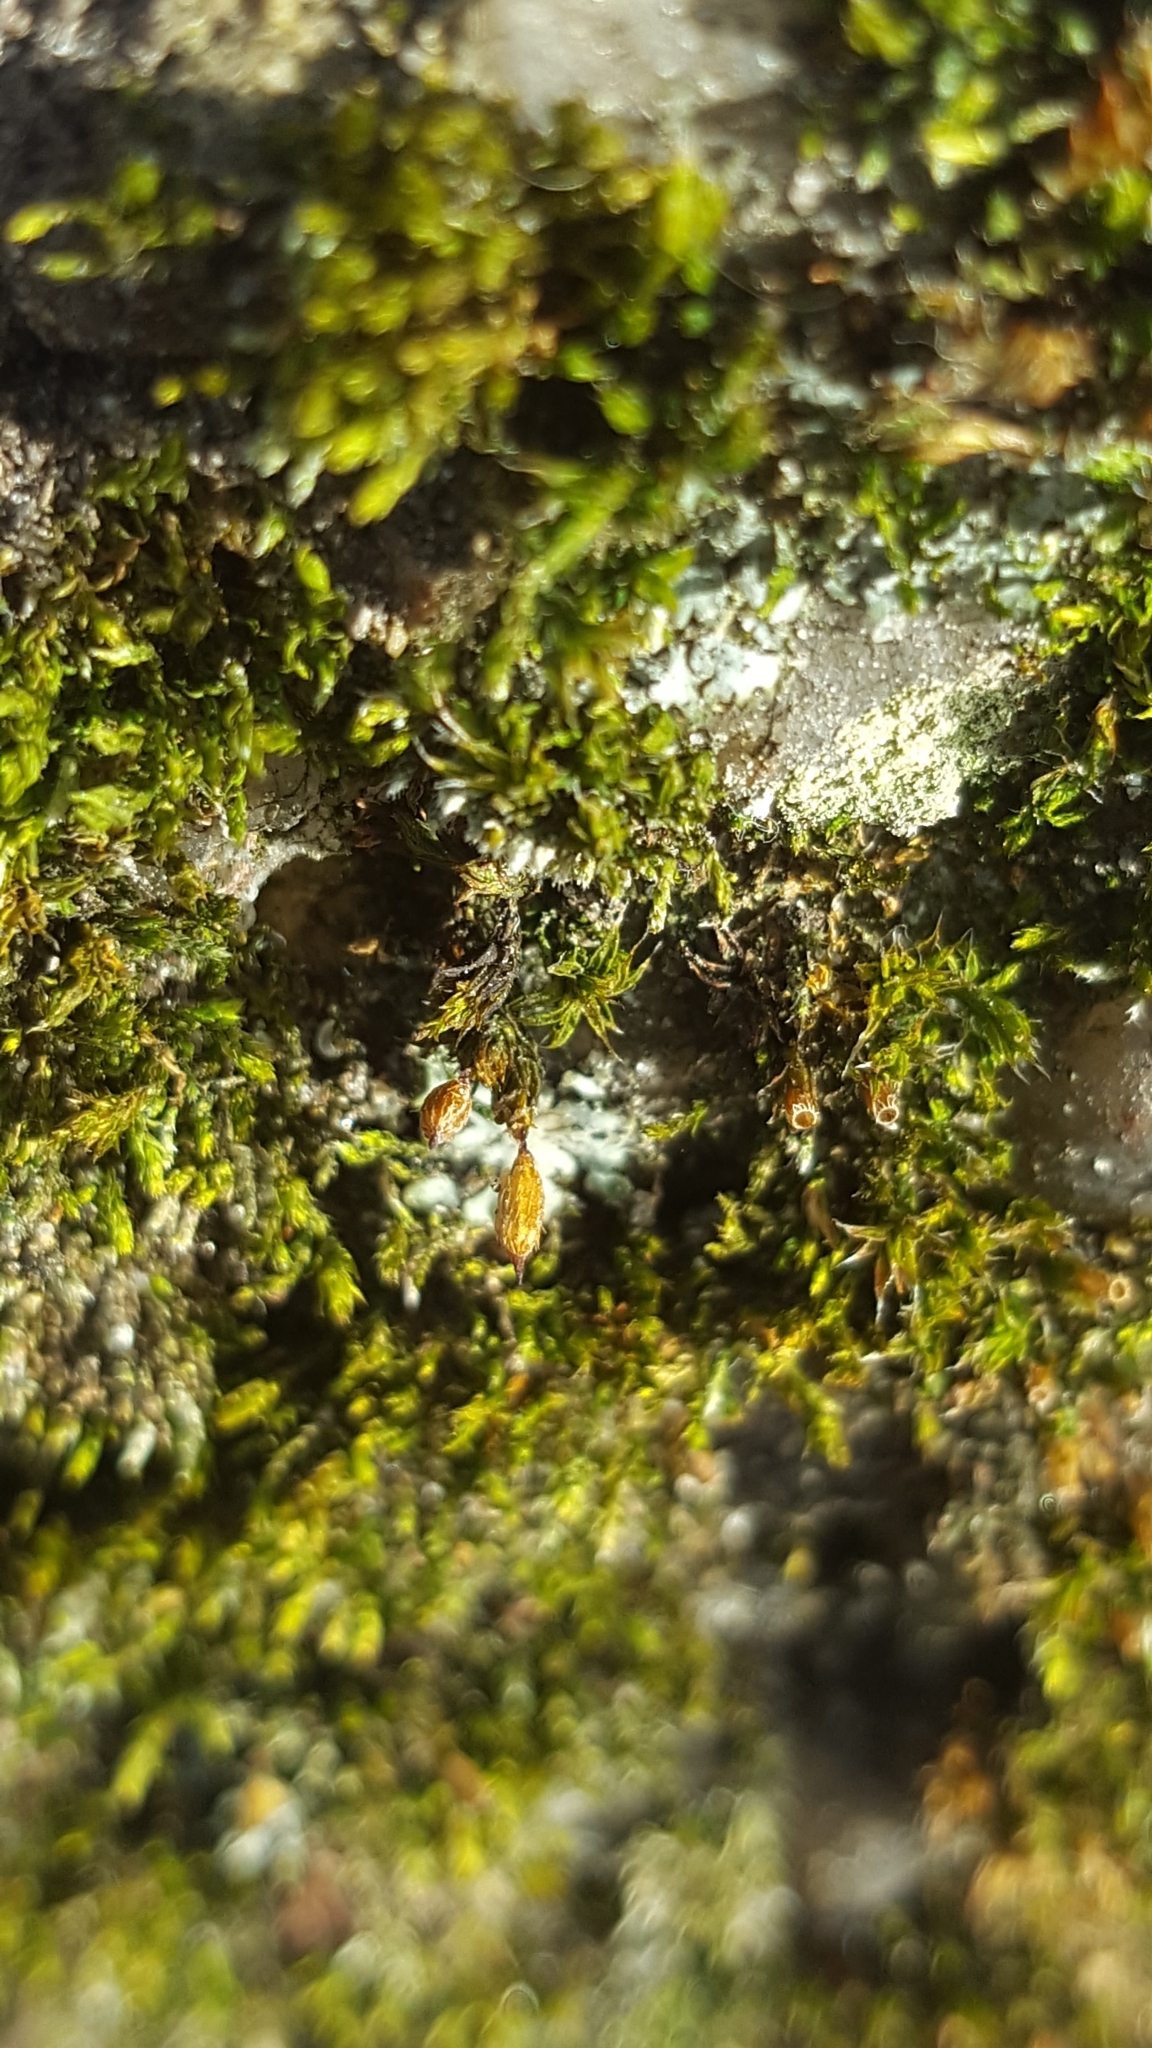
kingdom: Plantae
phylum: Bryophyta
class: Bryopsida
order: Orthotrichales
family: Orthotrichaceae
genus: Orthotrichum
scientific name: Orthotrichum diaphanum
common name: White-tipped bristle-moss
